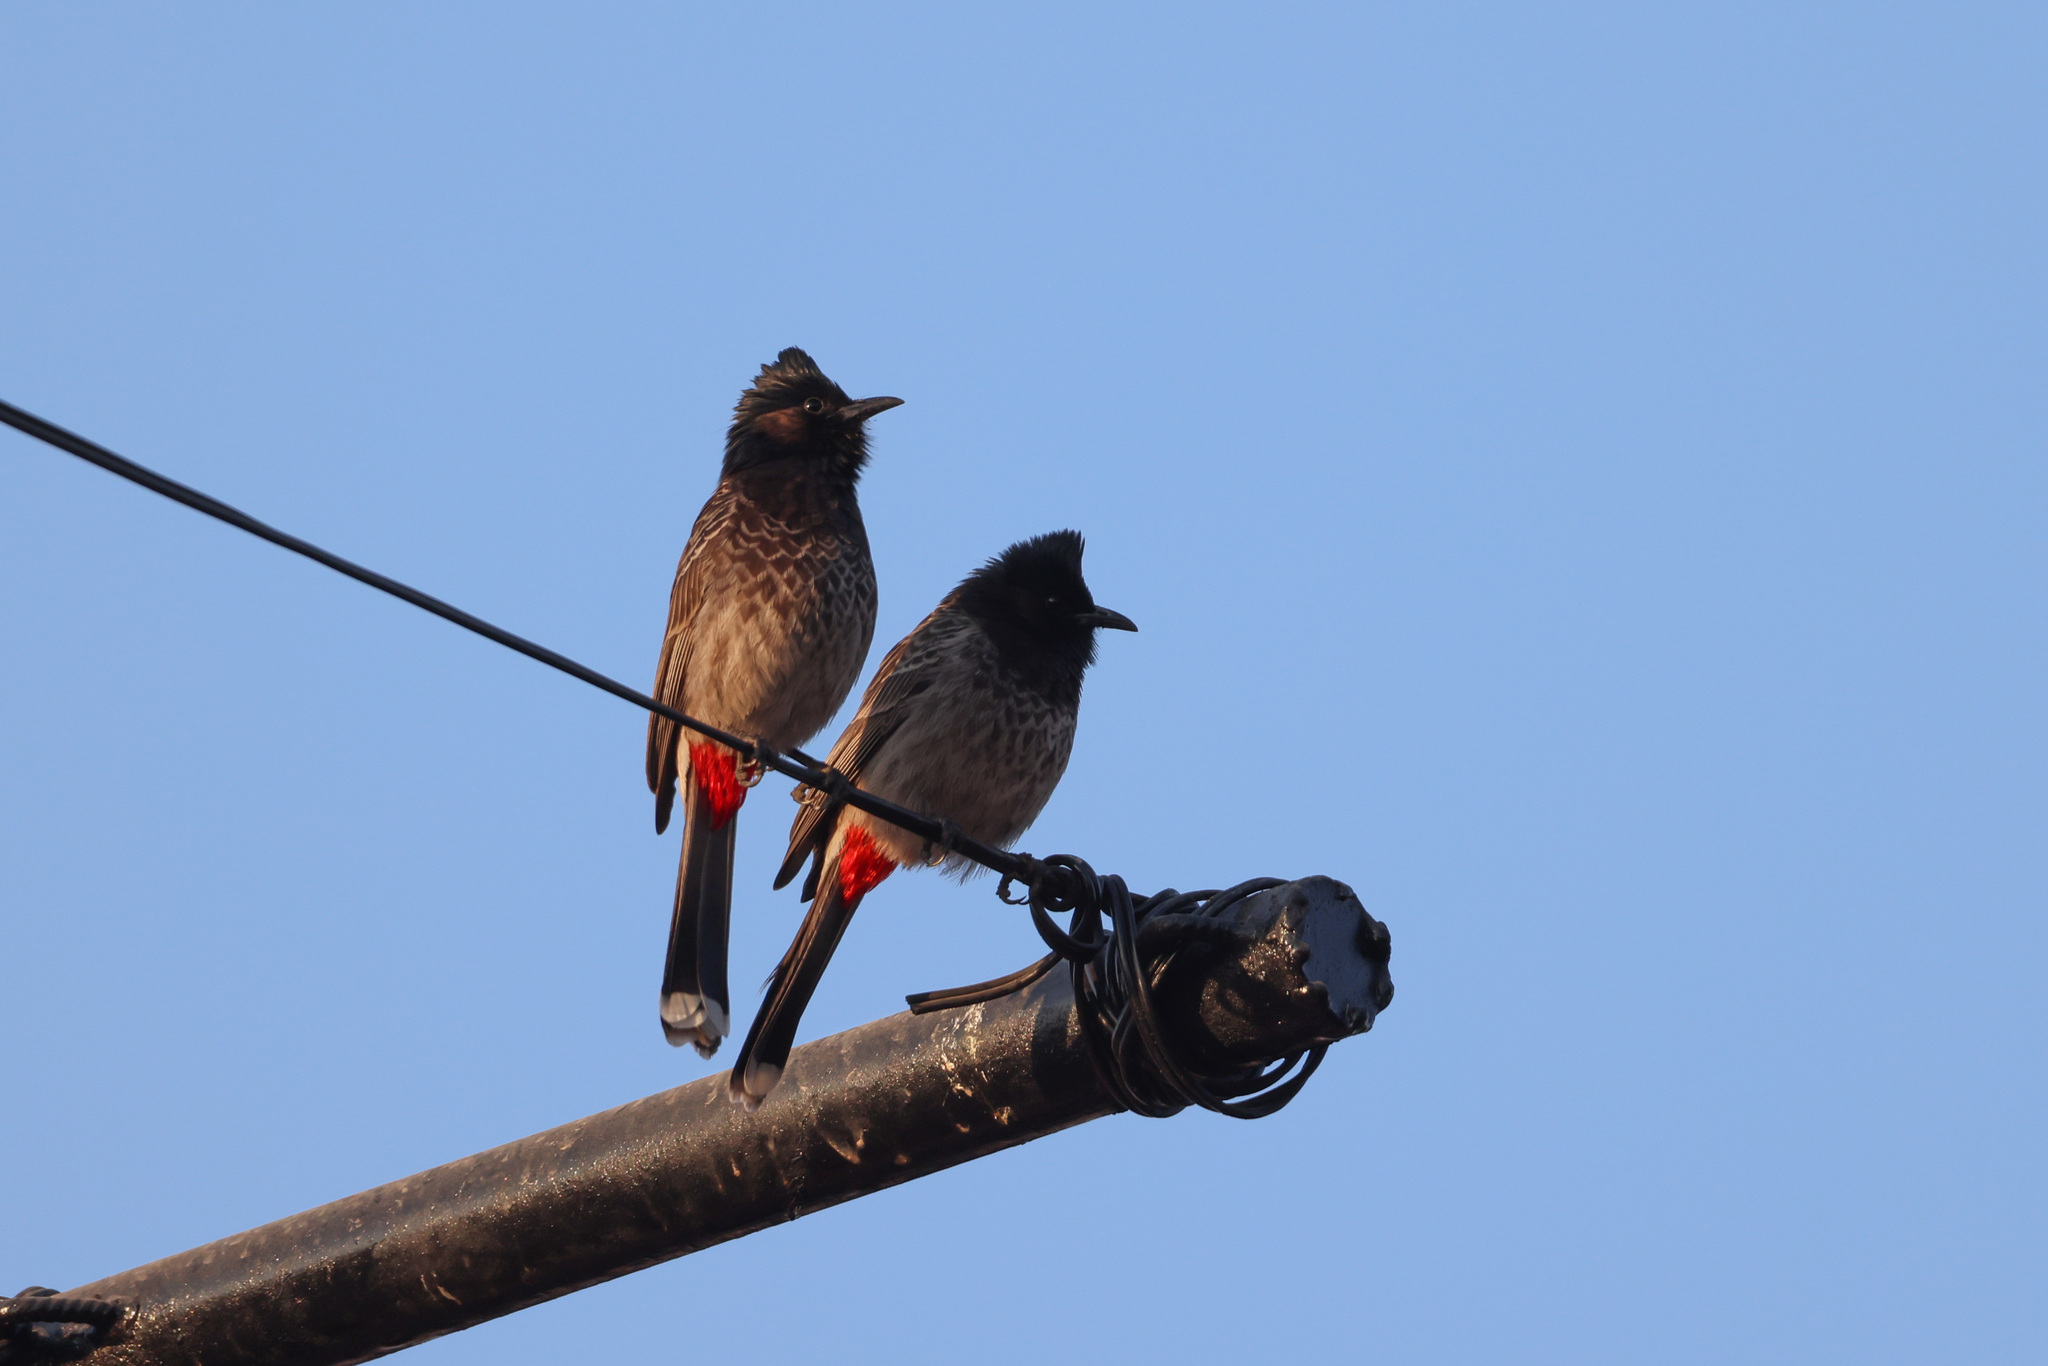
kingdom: Animalia
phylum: Chordata
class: Aves
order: Passeriformes
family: Pycnonotidae
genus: Pycnonotus
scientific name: Pycnonotus cafer
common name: Red-vented bulbul
